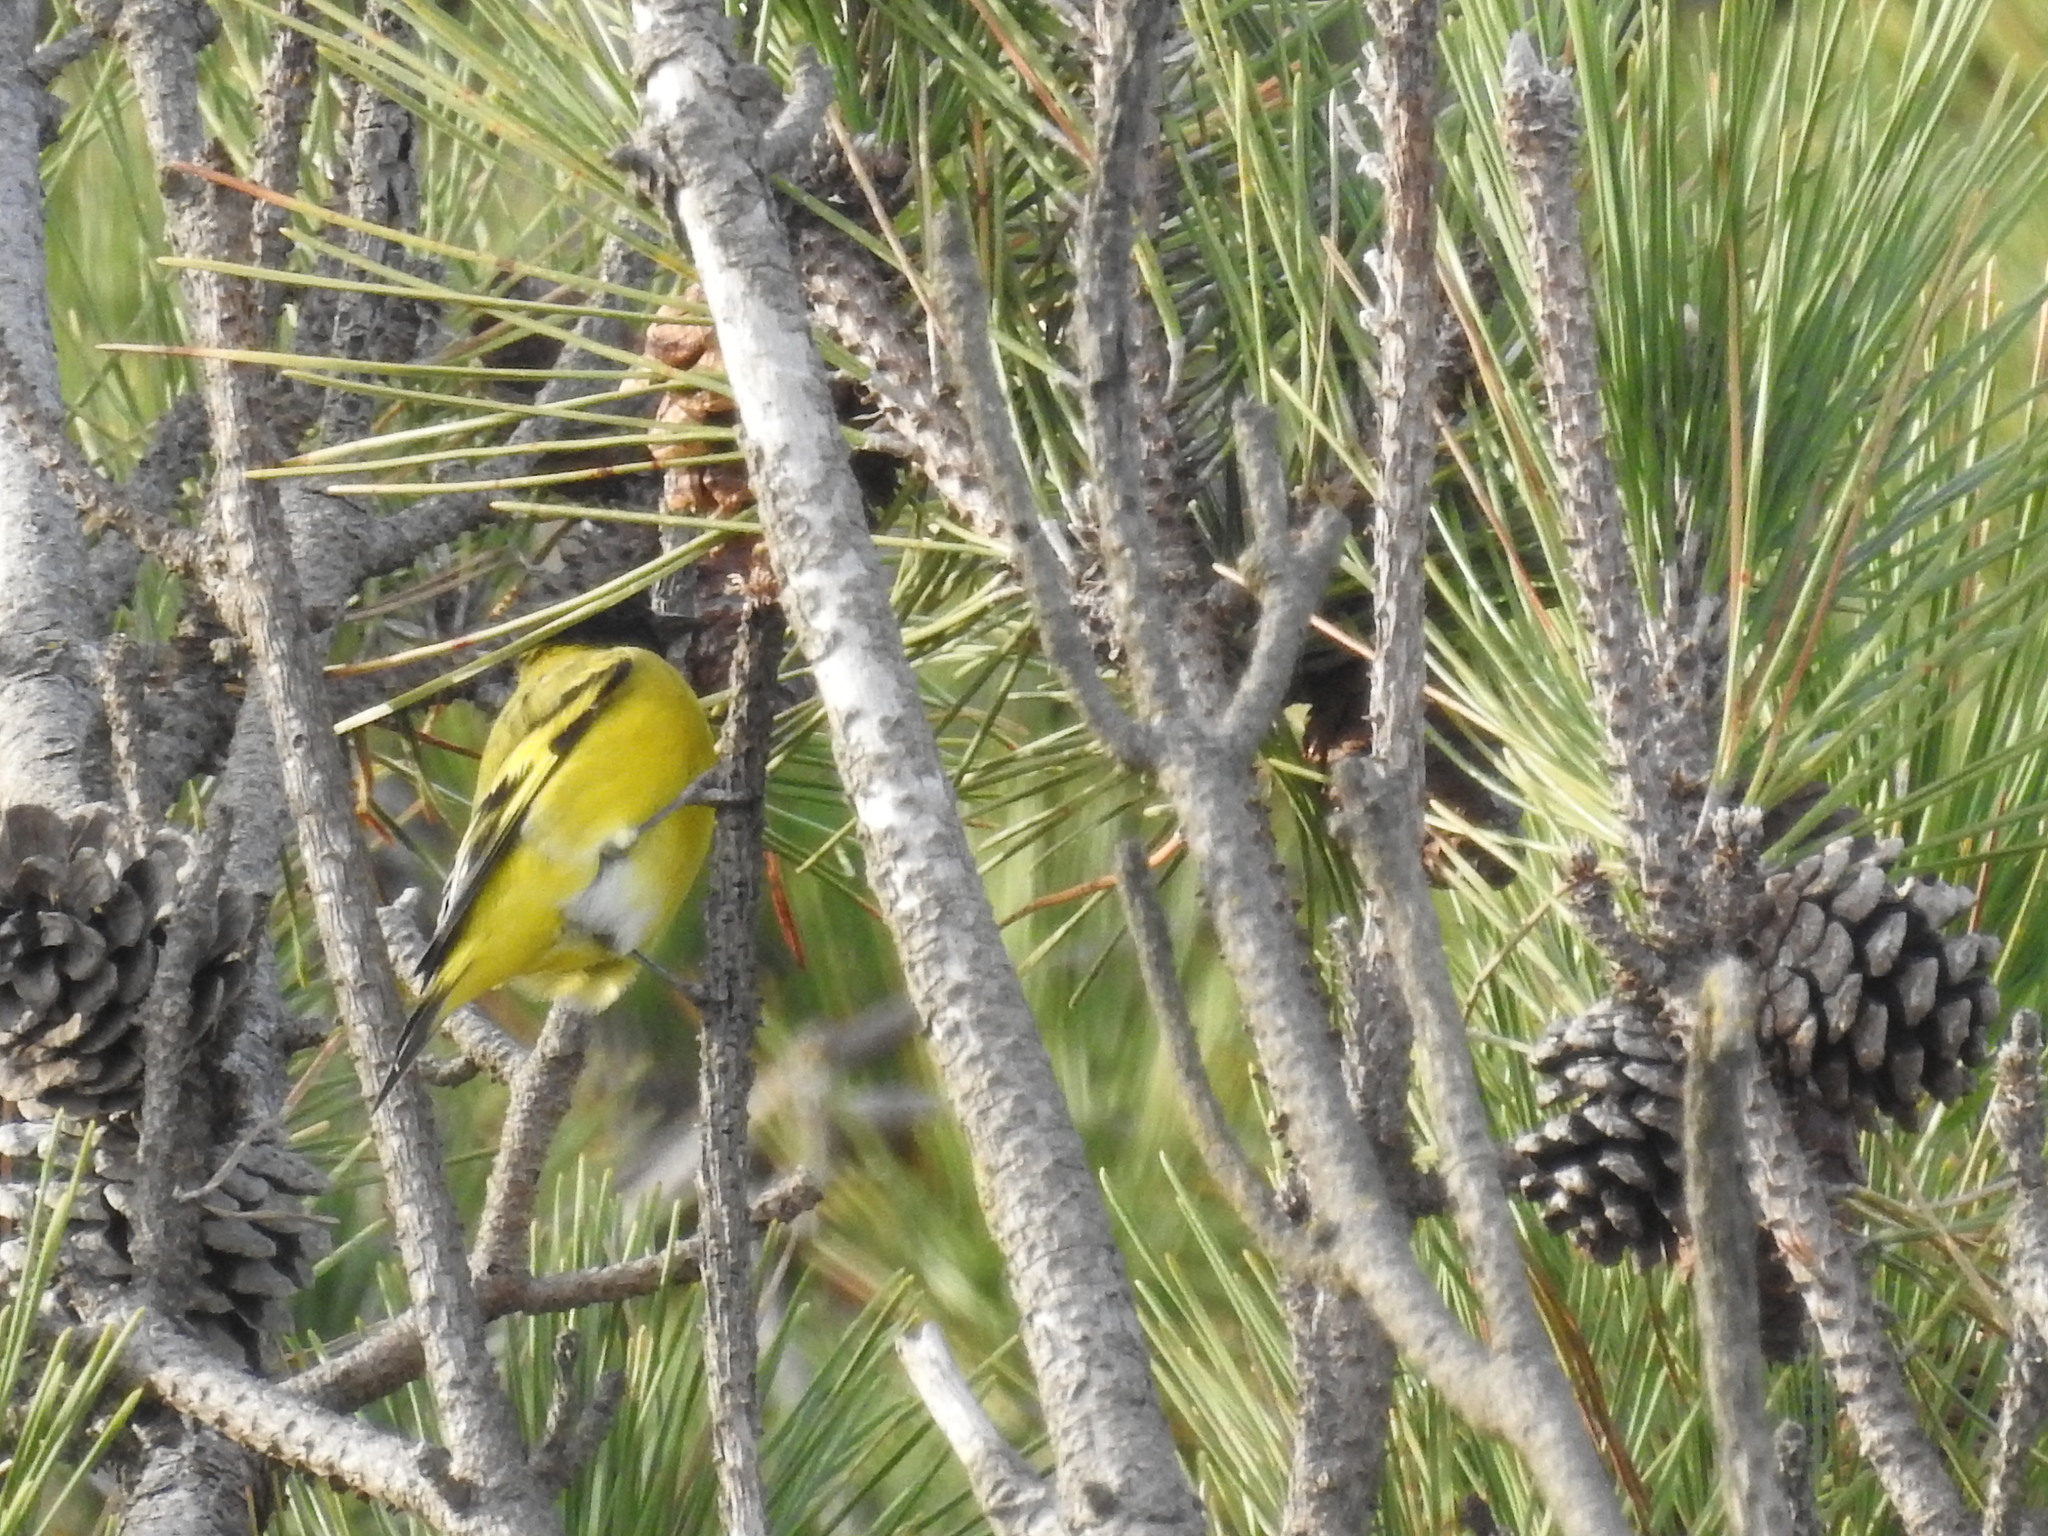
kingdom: Animalia
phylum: Chordata
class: Aves
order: Passeriformes
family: Fringillidae
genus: Spinus
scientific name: Spinus magellanicus
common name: Hooded siskin
